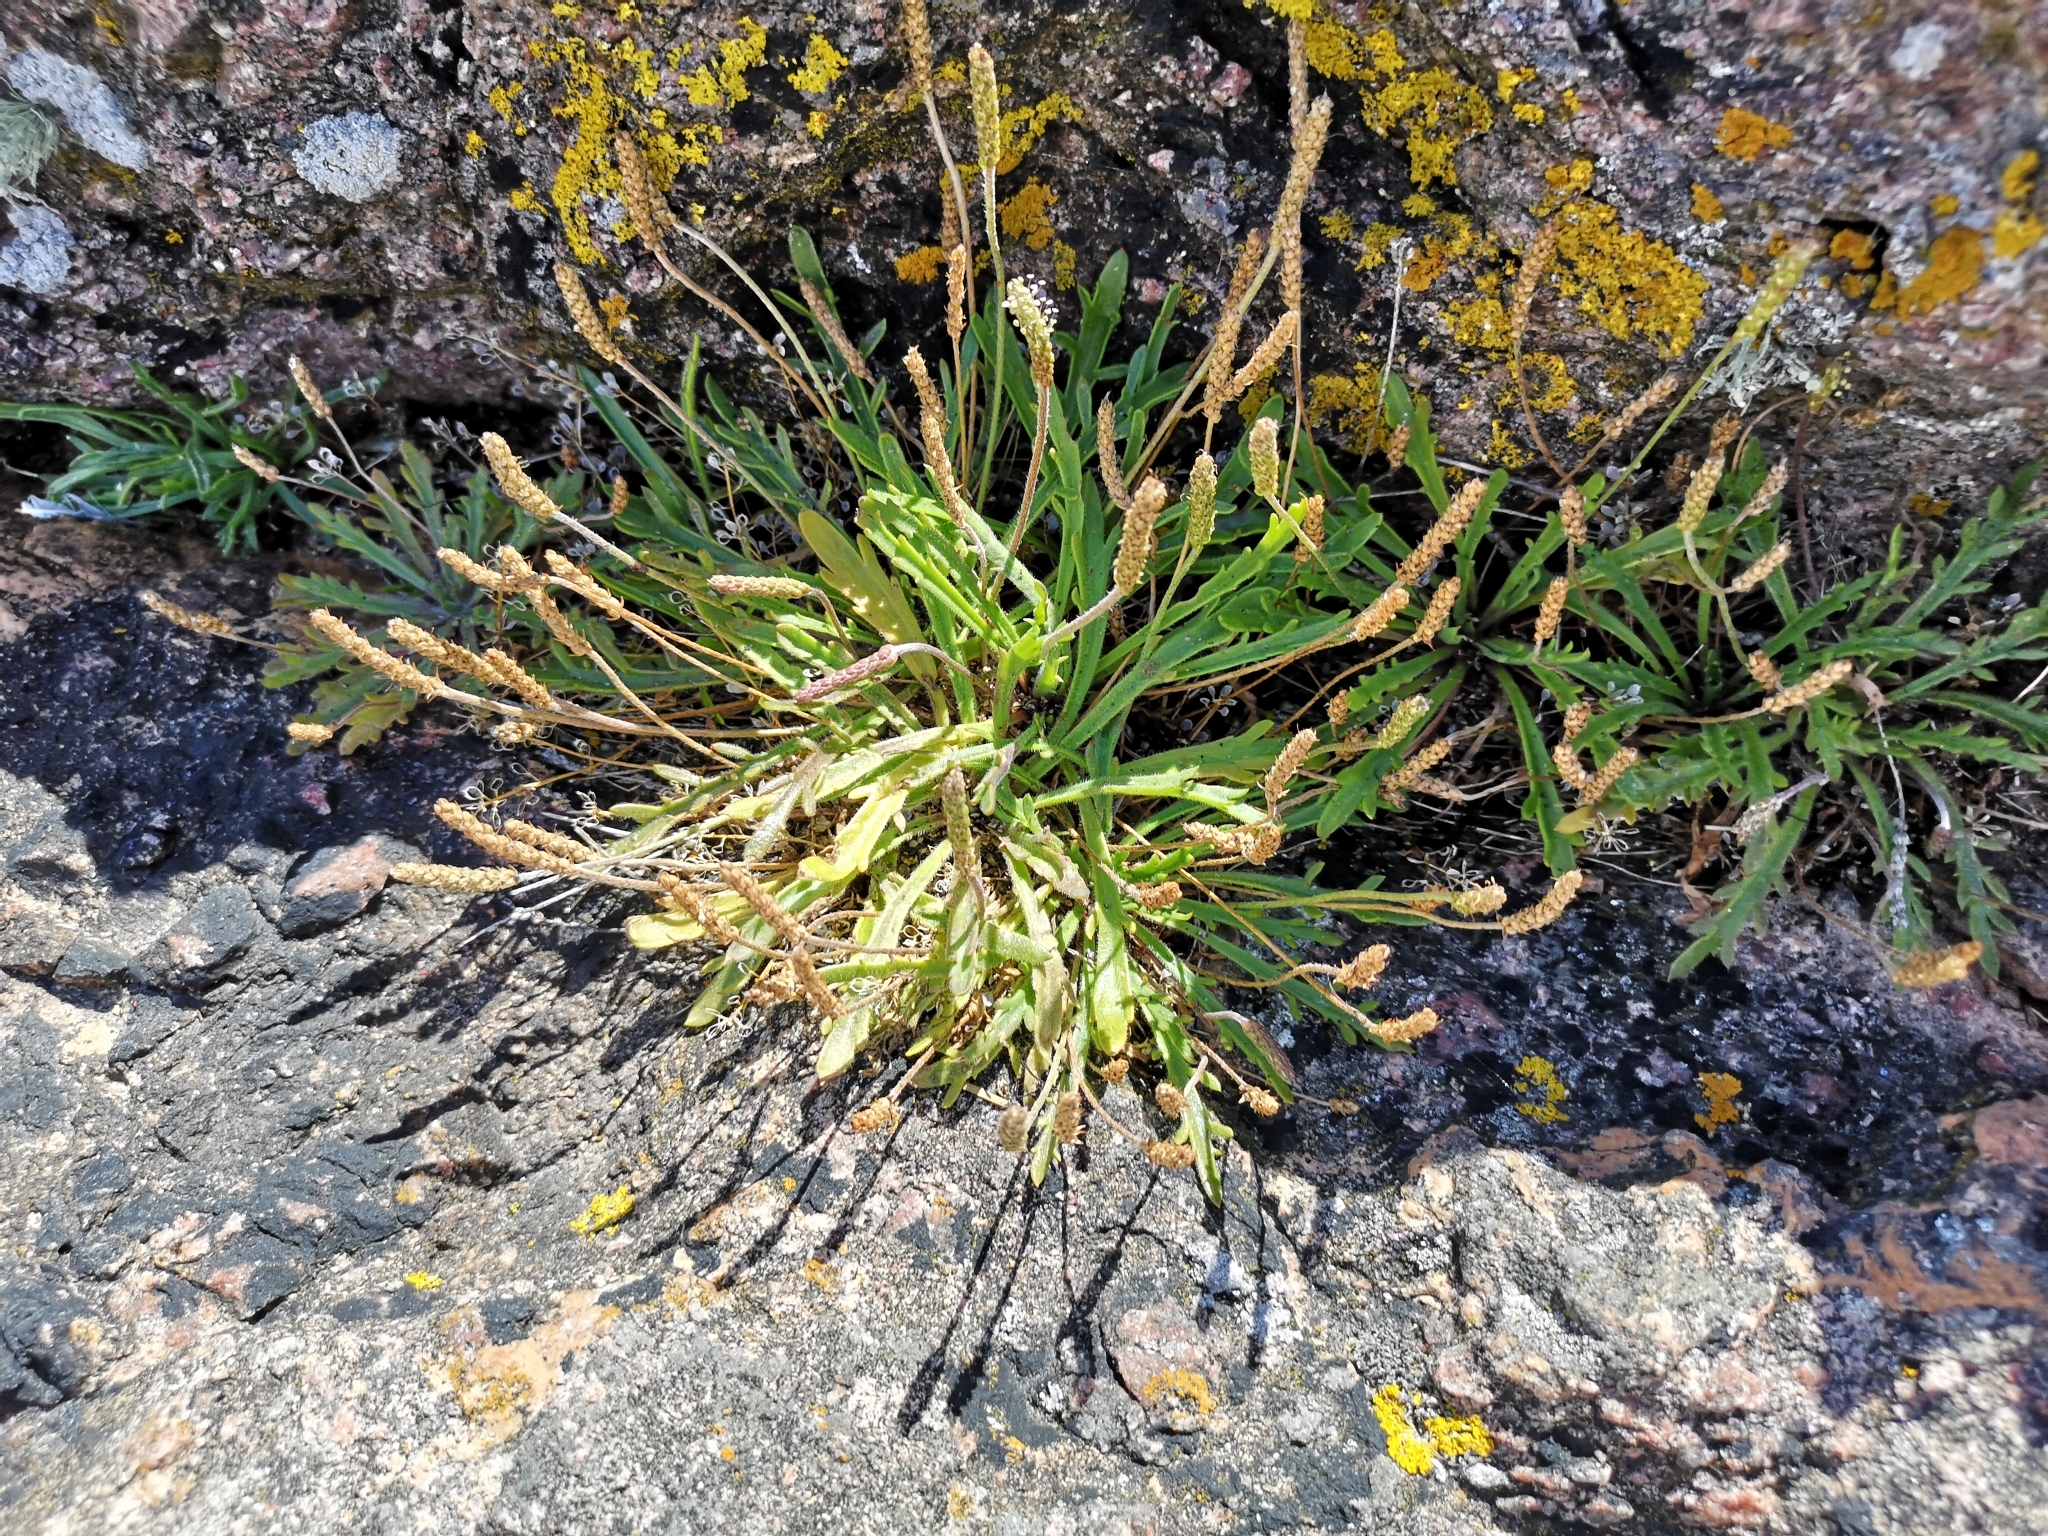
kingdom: Plantae
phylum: Tracheophyta
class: Magnoliopsida
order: Lamiales
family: Plantaginaceae
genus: Plantago
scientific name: Plantago coronopus
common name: Buck's-horn plantain
